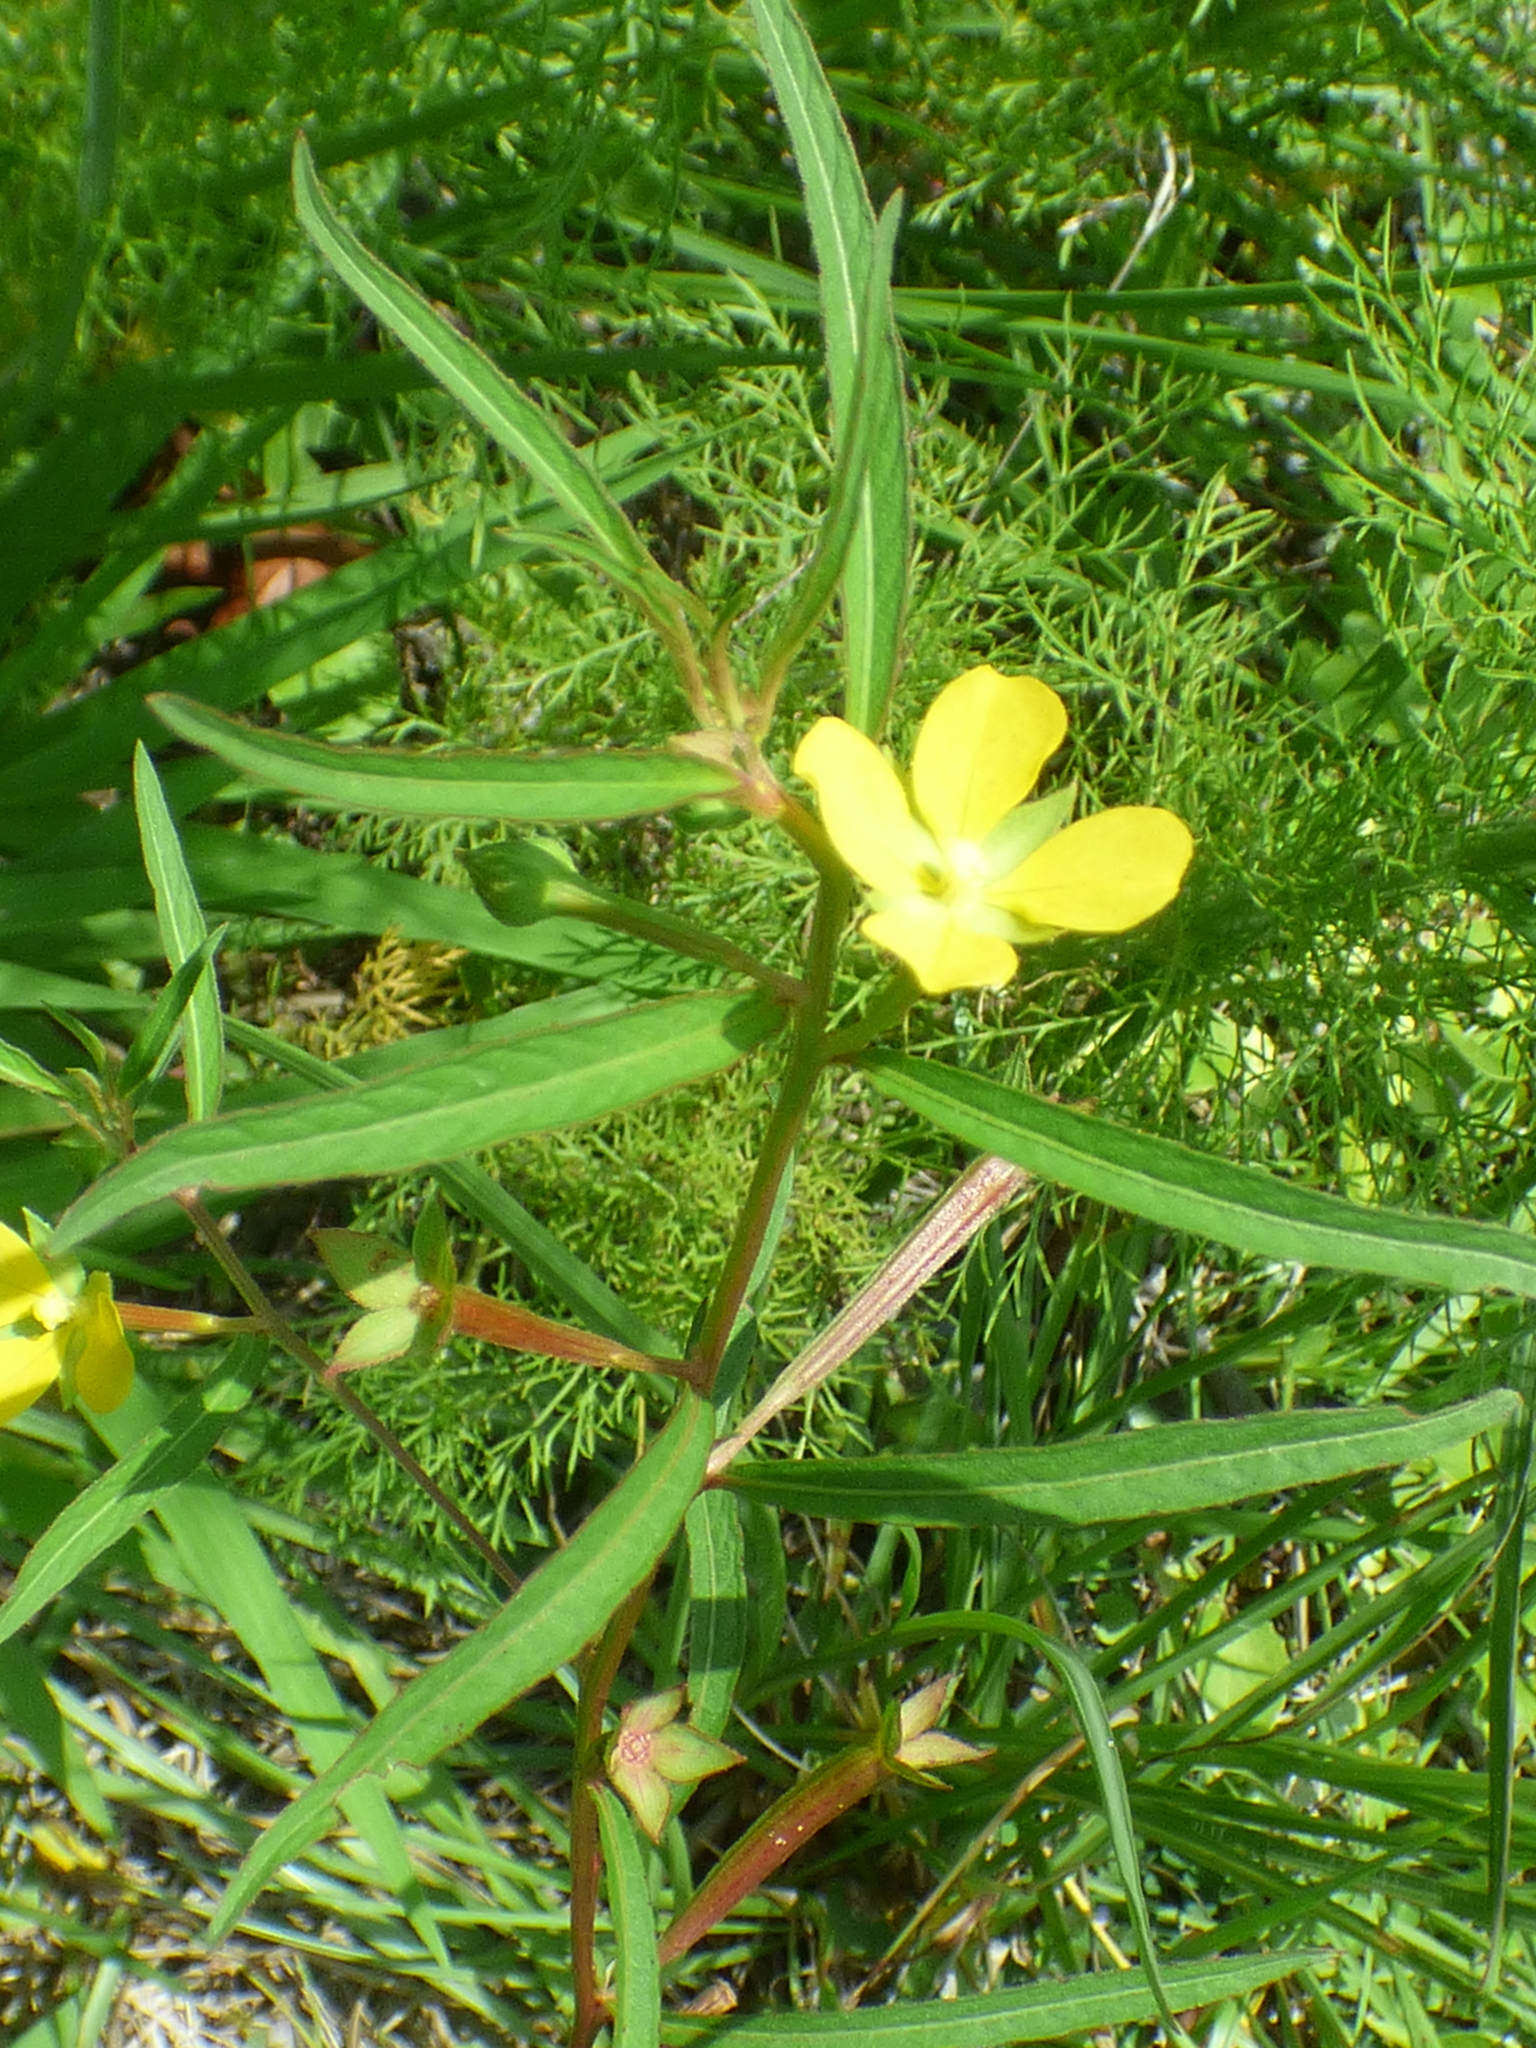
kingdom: Plantae
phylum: Tracheophyta
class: Magnoliopsida
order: Myrtales
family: Onagraceae
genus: Ludwigia
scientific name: Ludwigia octovalvis
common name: Water-primrose
